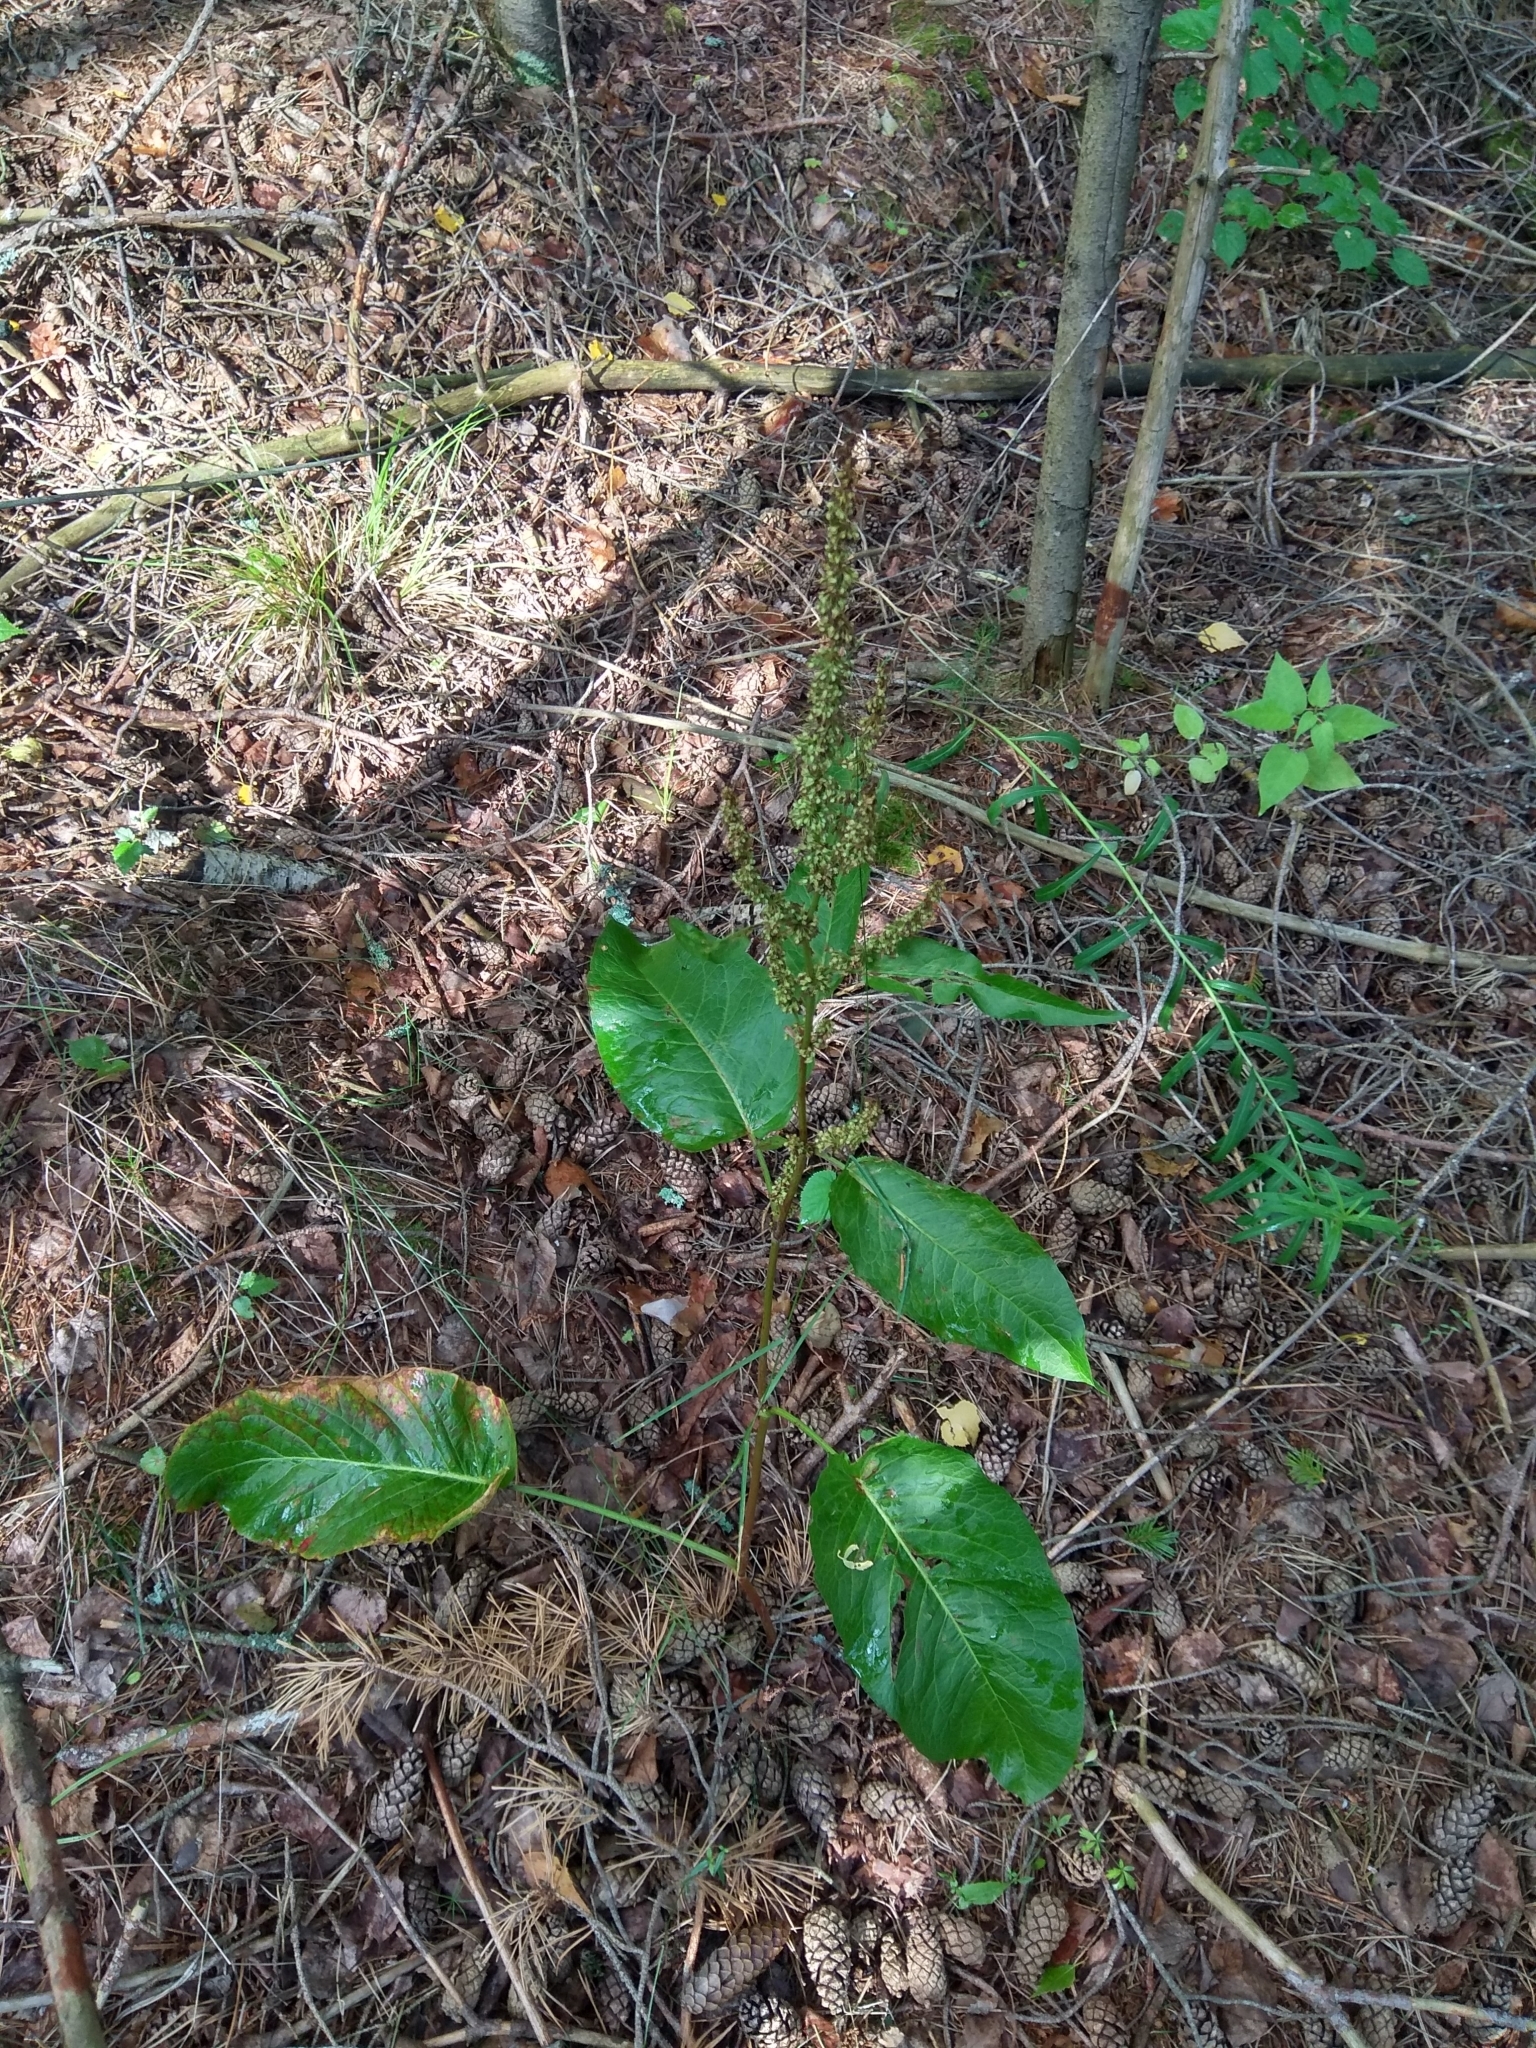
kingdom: Plantae
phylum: Tracheophyta
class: Magnoliopsida
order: Caryophyllales
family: Polygonaceae
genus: Rumex
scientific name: Rumex obtusifolius
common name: Bitter dock
